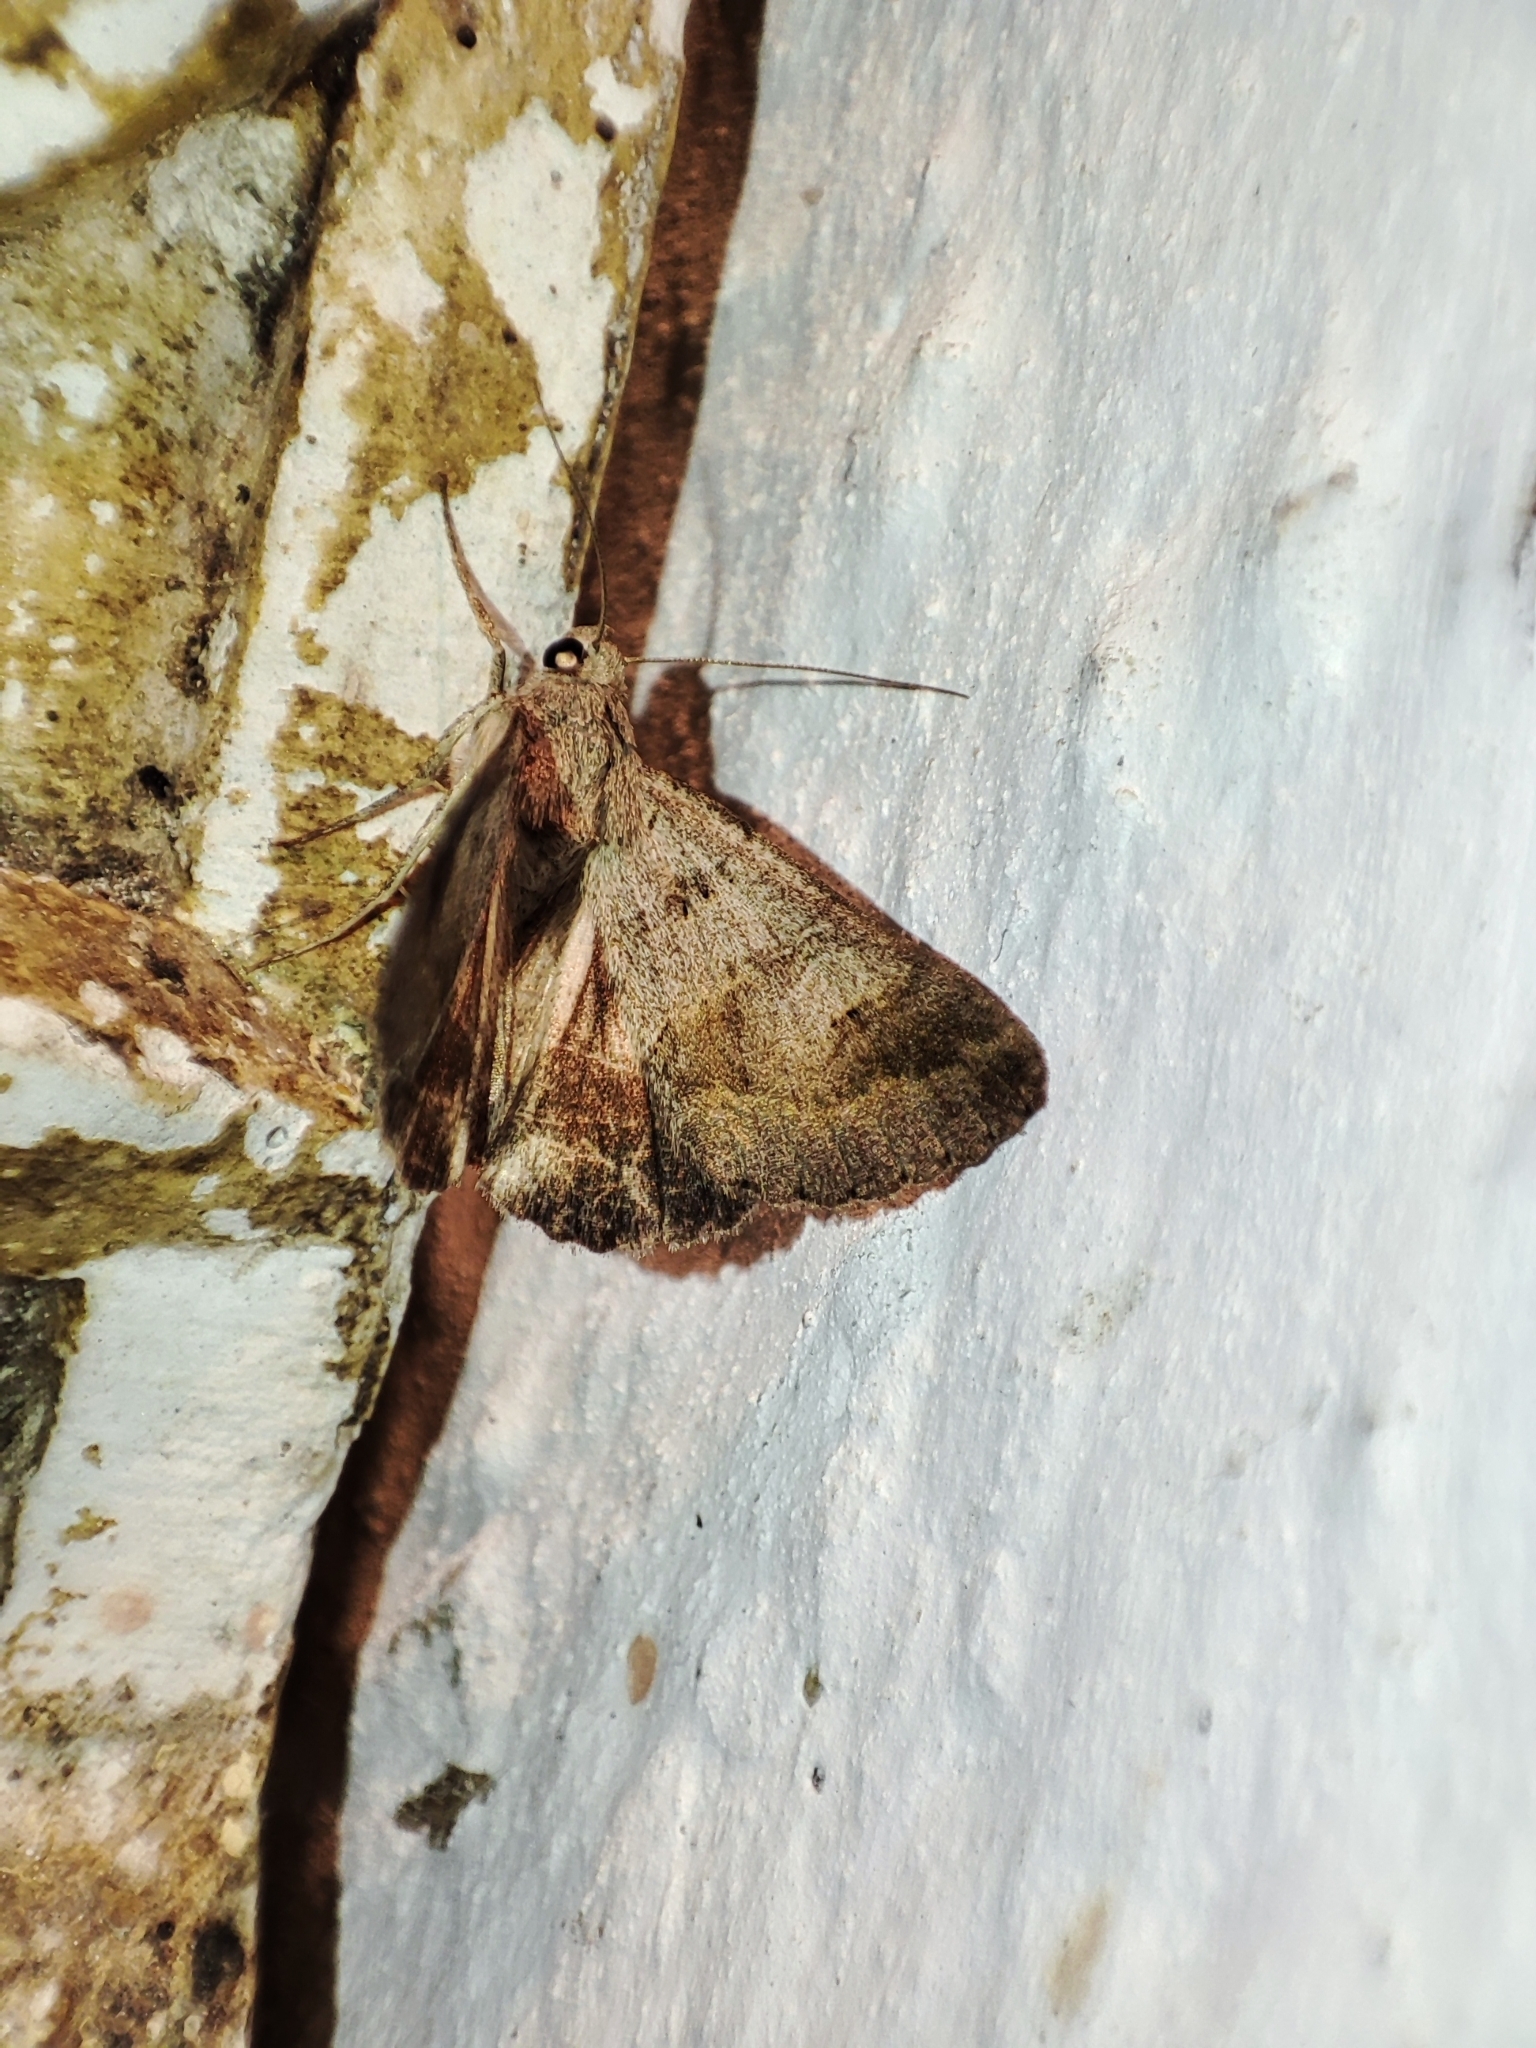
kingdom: Animalia
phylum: Arthropoda
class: Insecta
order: Lepidoptera
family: Erebidae
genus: Drasteria
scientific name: Drasteria caucasica
